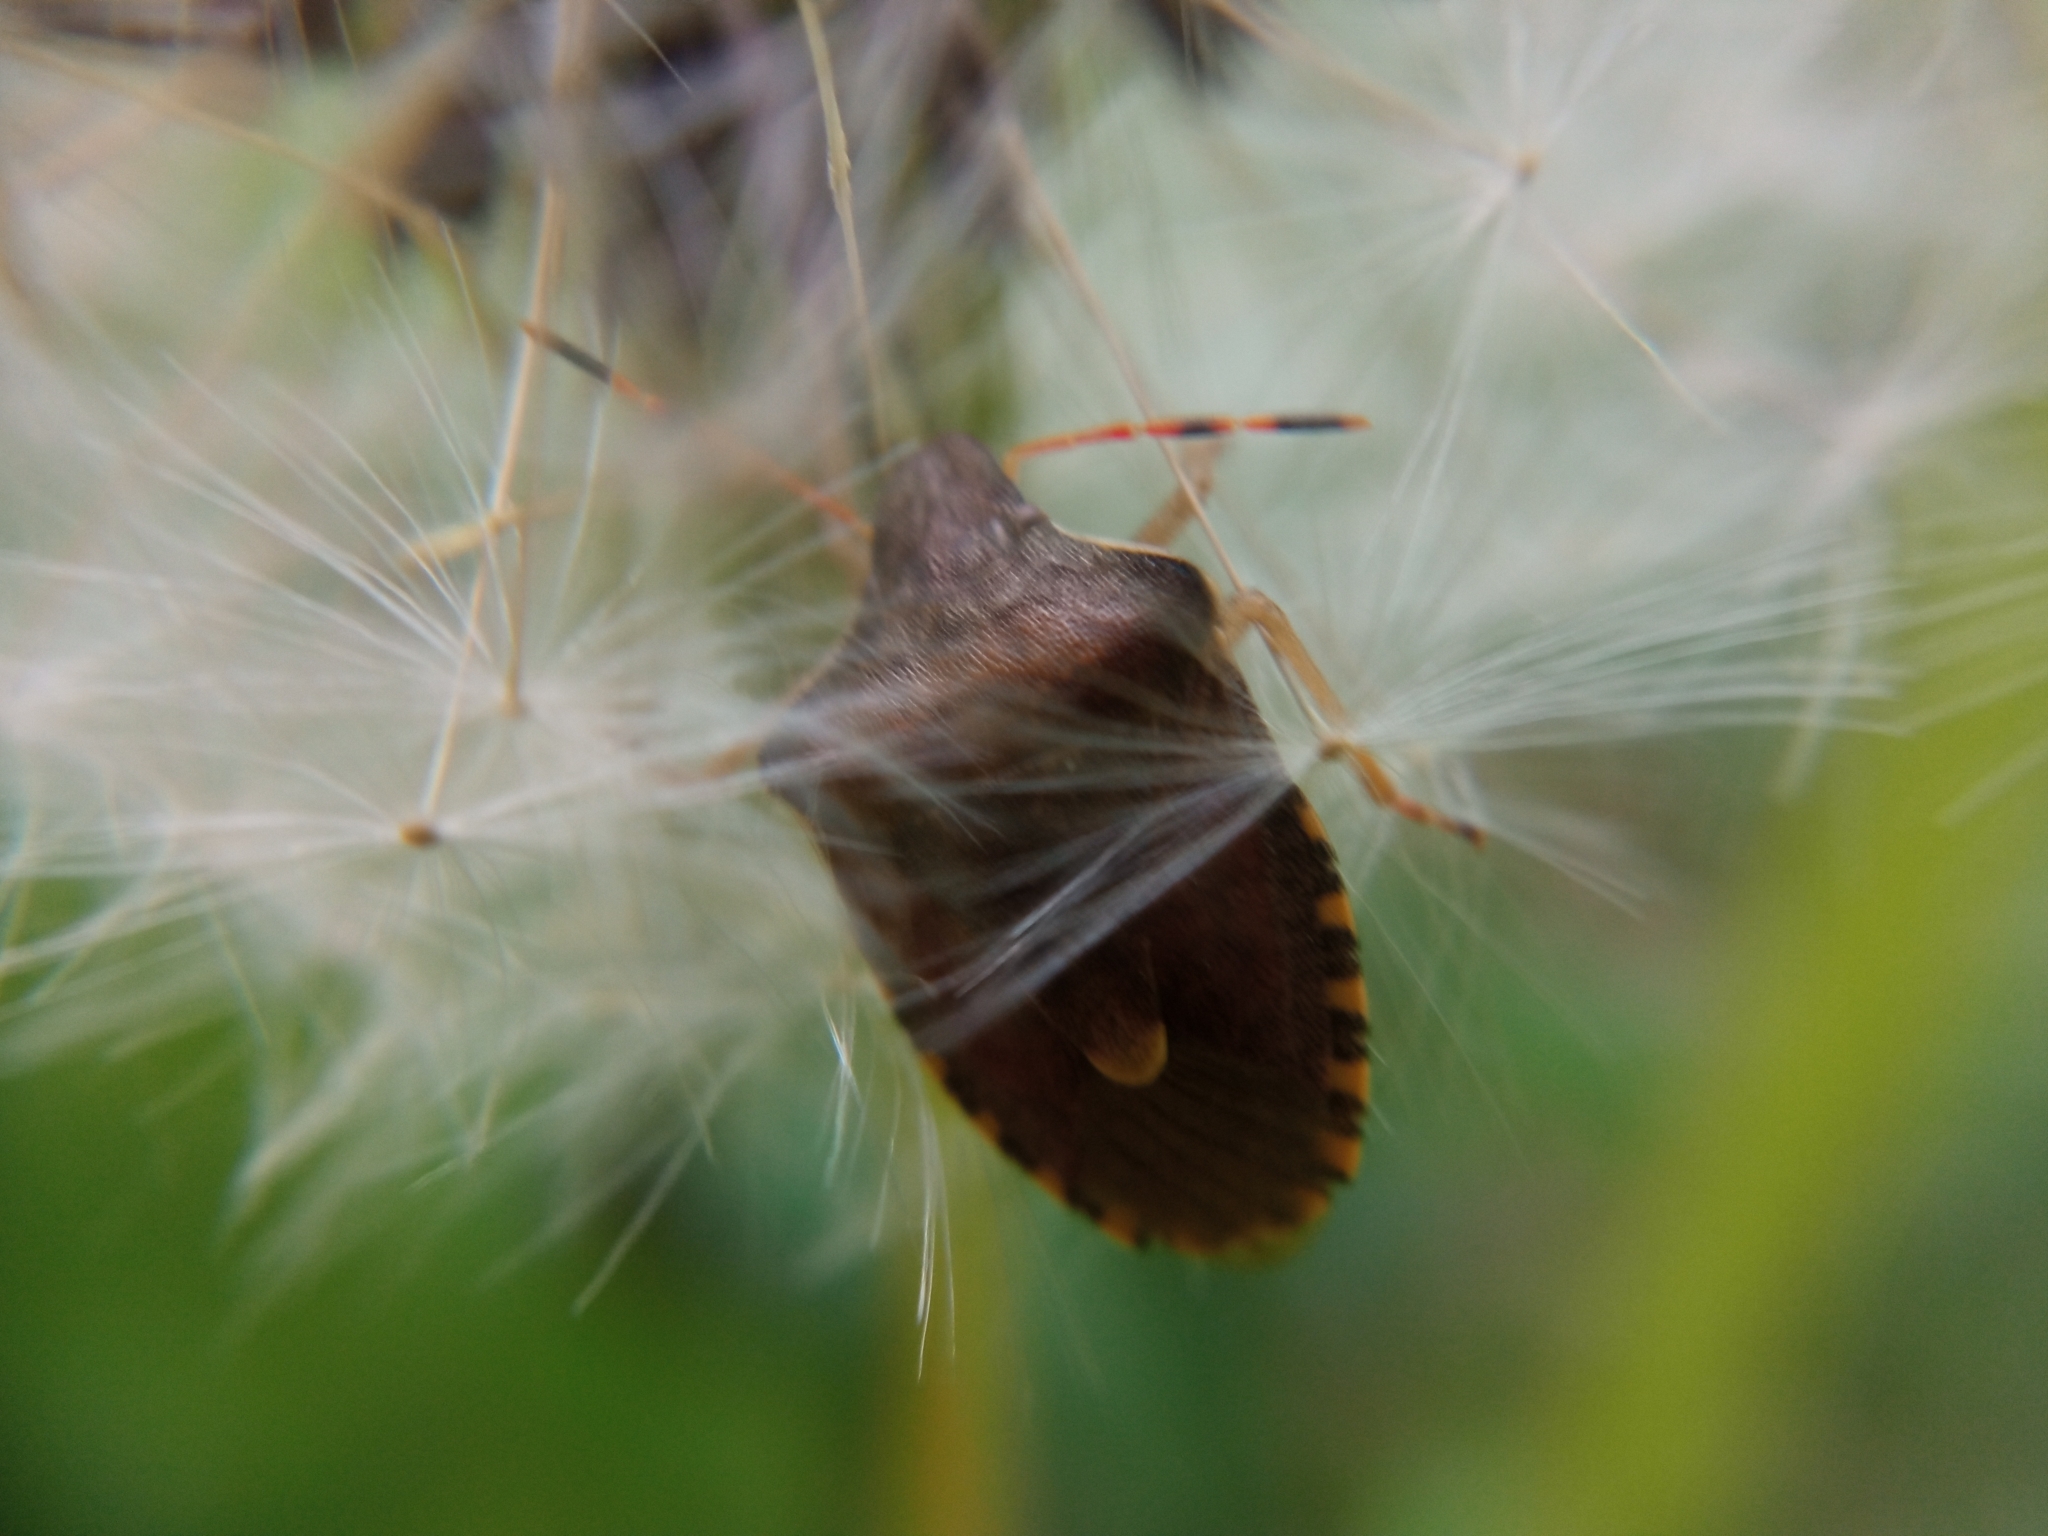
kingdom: Animalia
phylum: Arthropoda
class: Insecta
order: Hemiptera
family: Pentatomidae
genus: Holcostethus
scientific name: Holcostethus strictus
